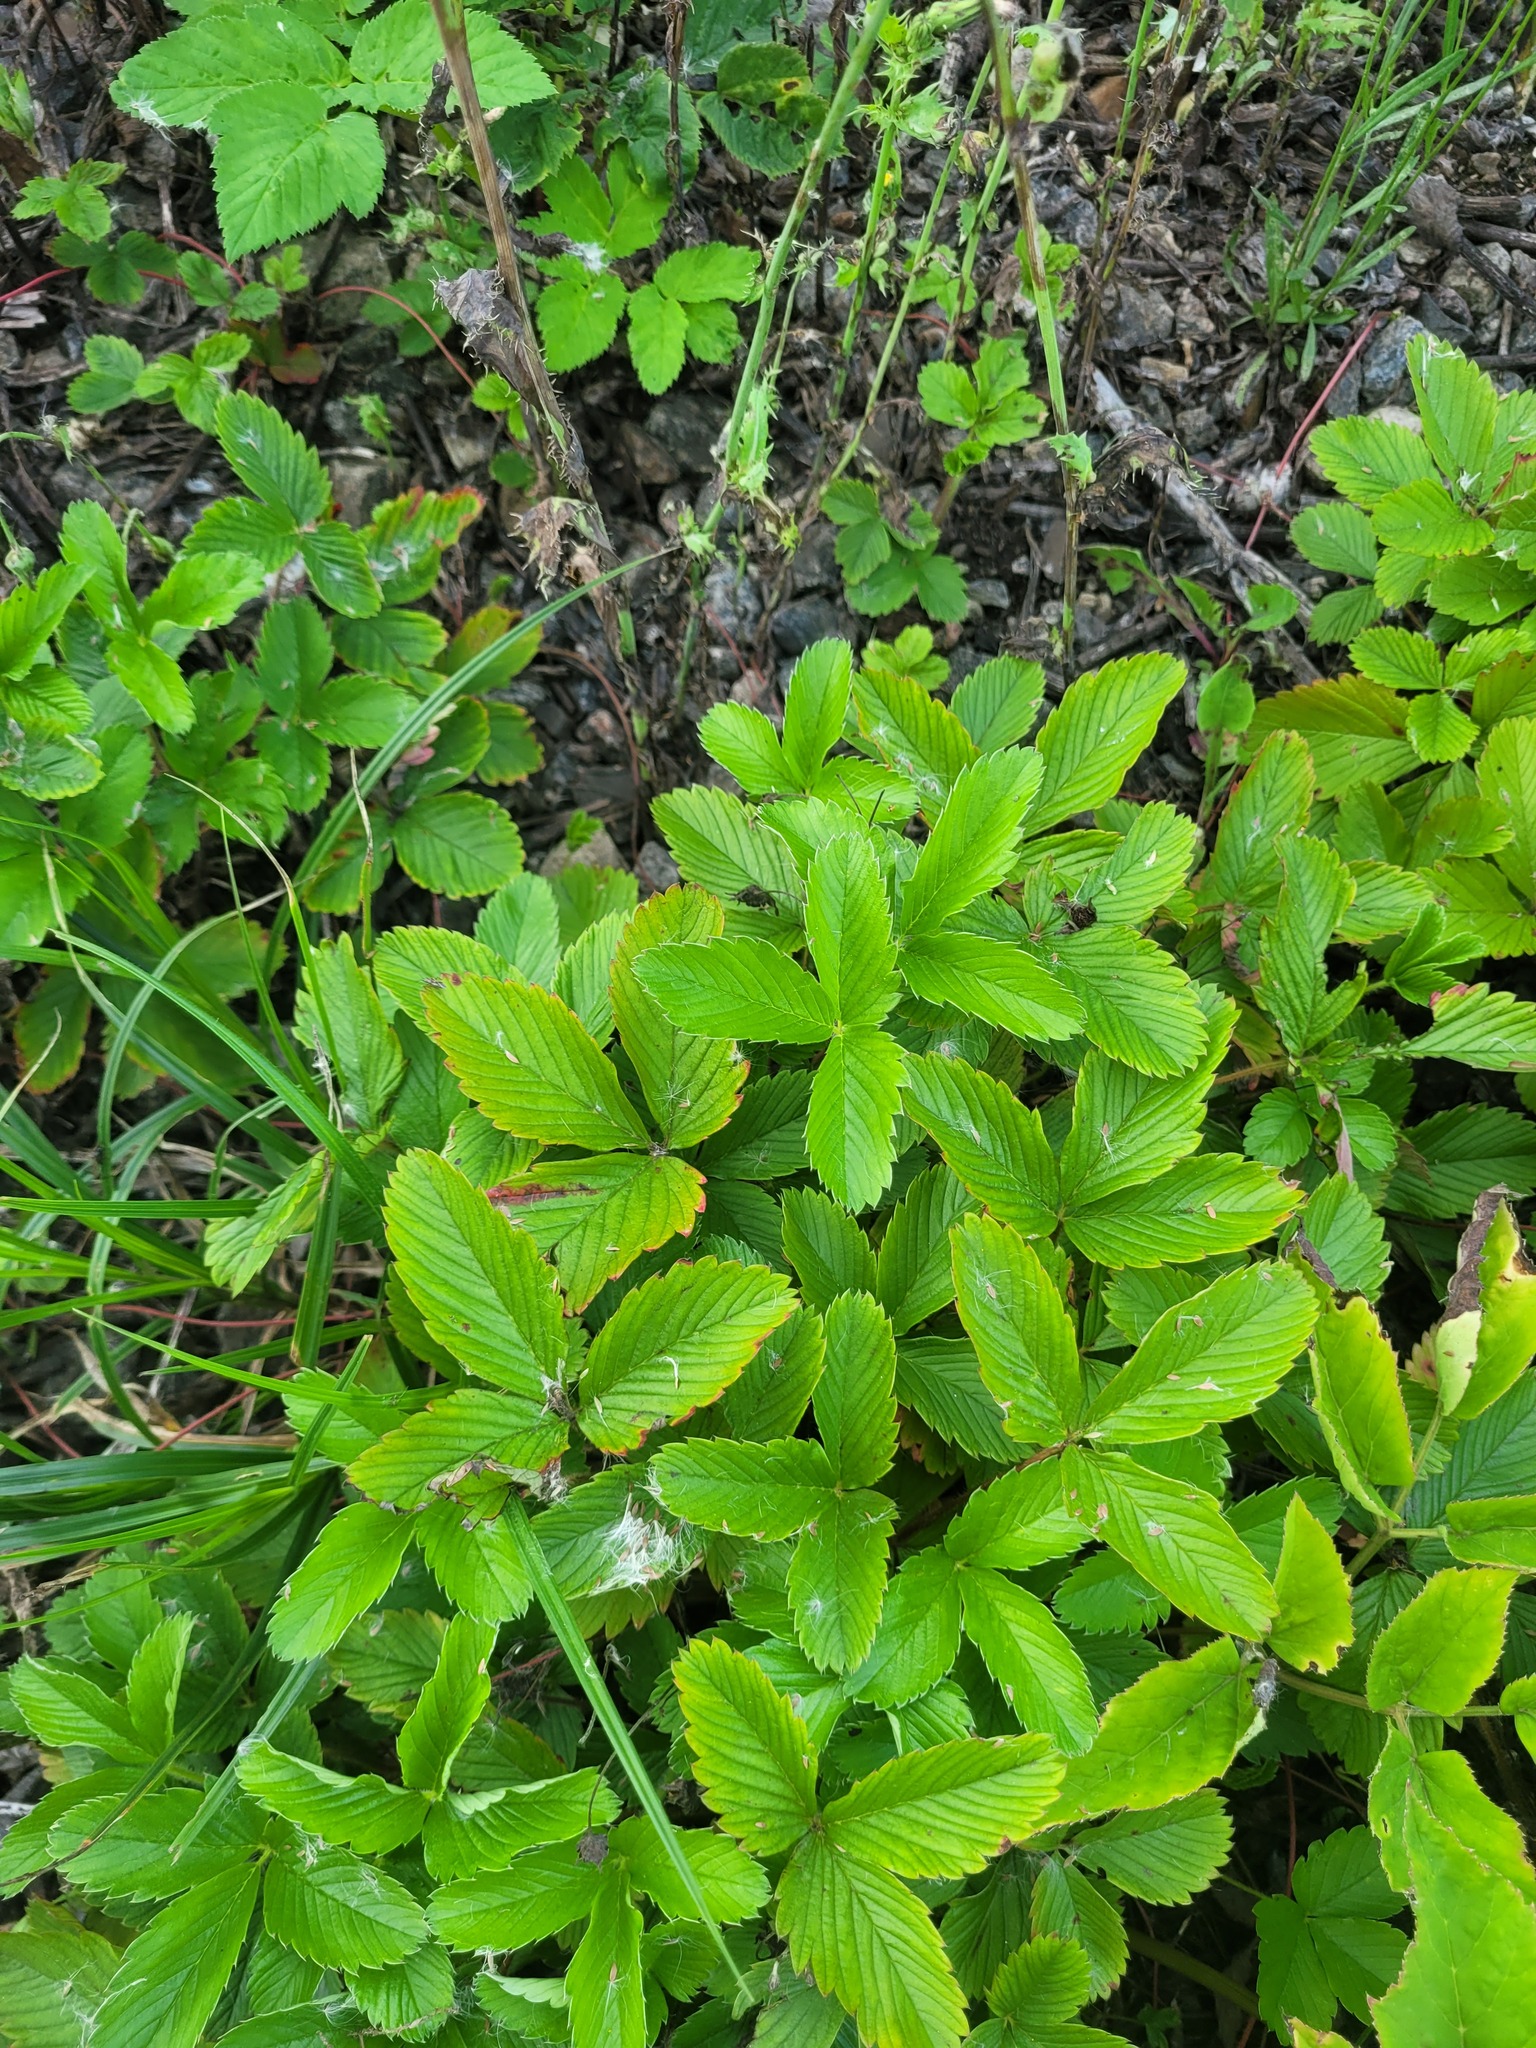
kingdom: Plantae
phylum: Tracheophyta
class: Magnoliopsida
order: Rosales
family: Rosaceae
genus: Fragaria
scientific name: Fragaria viridis
